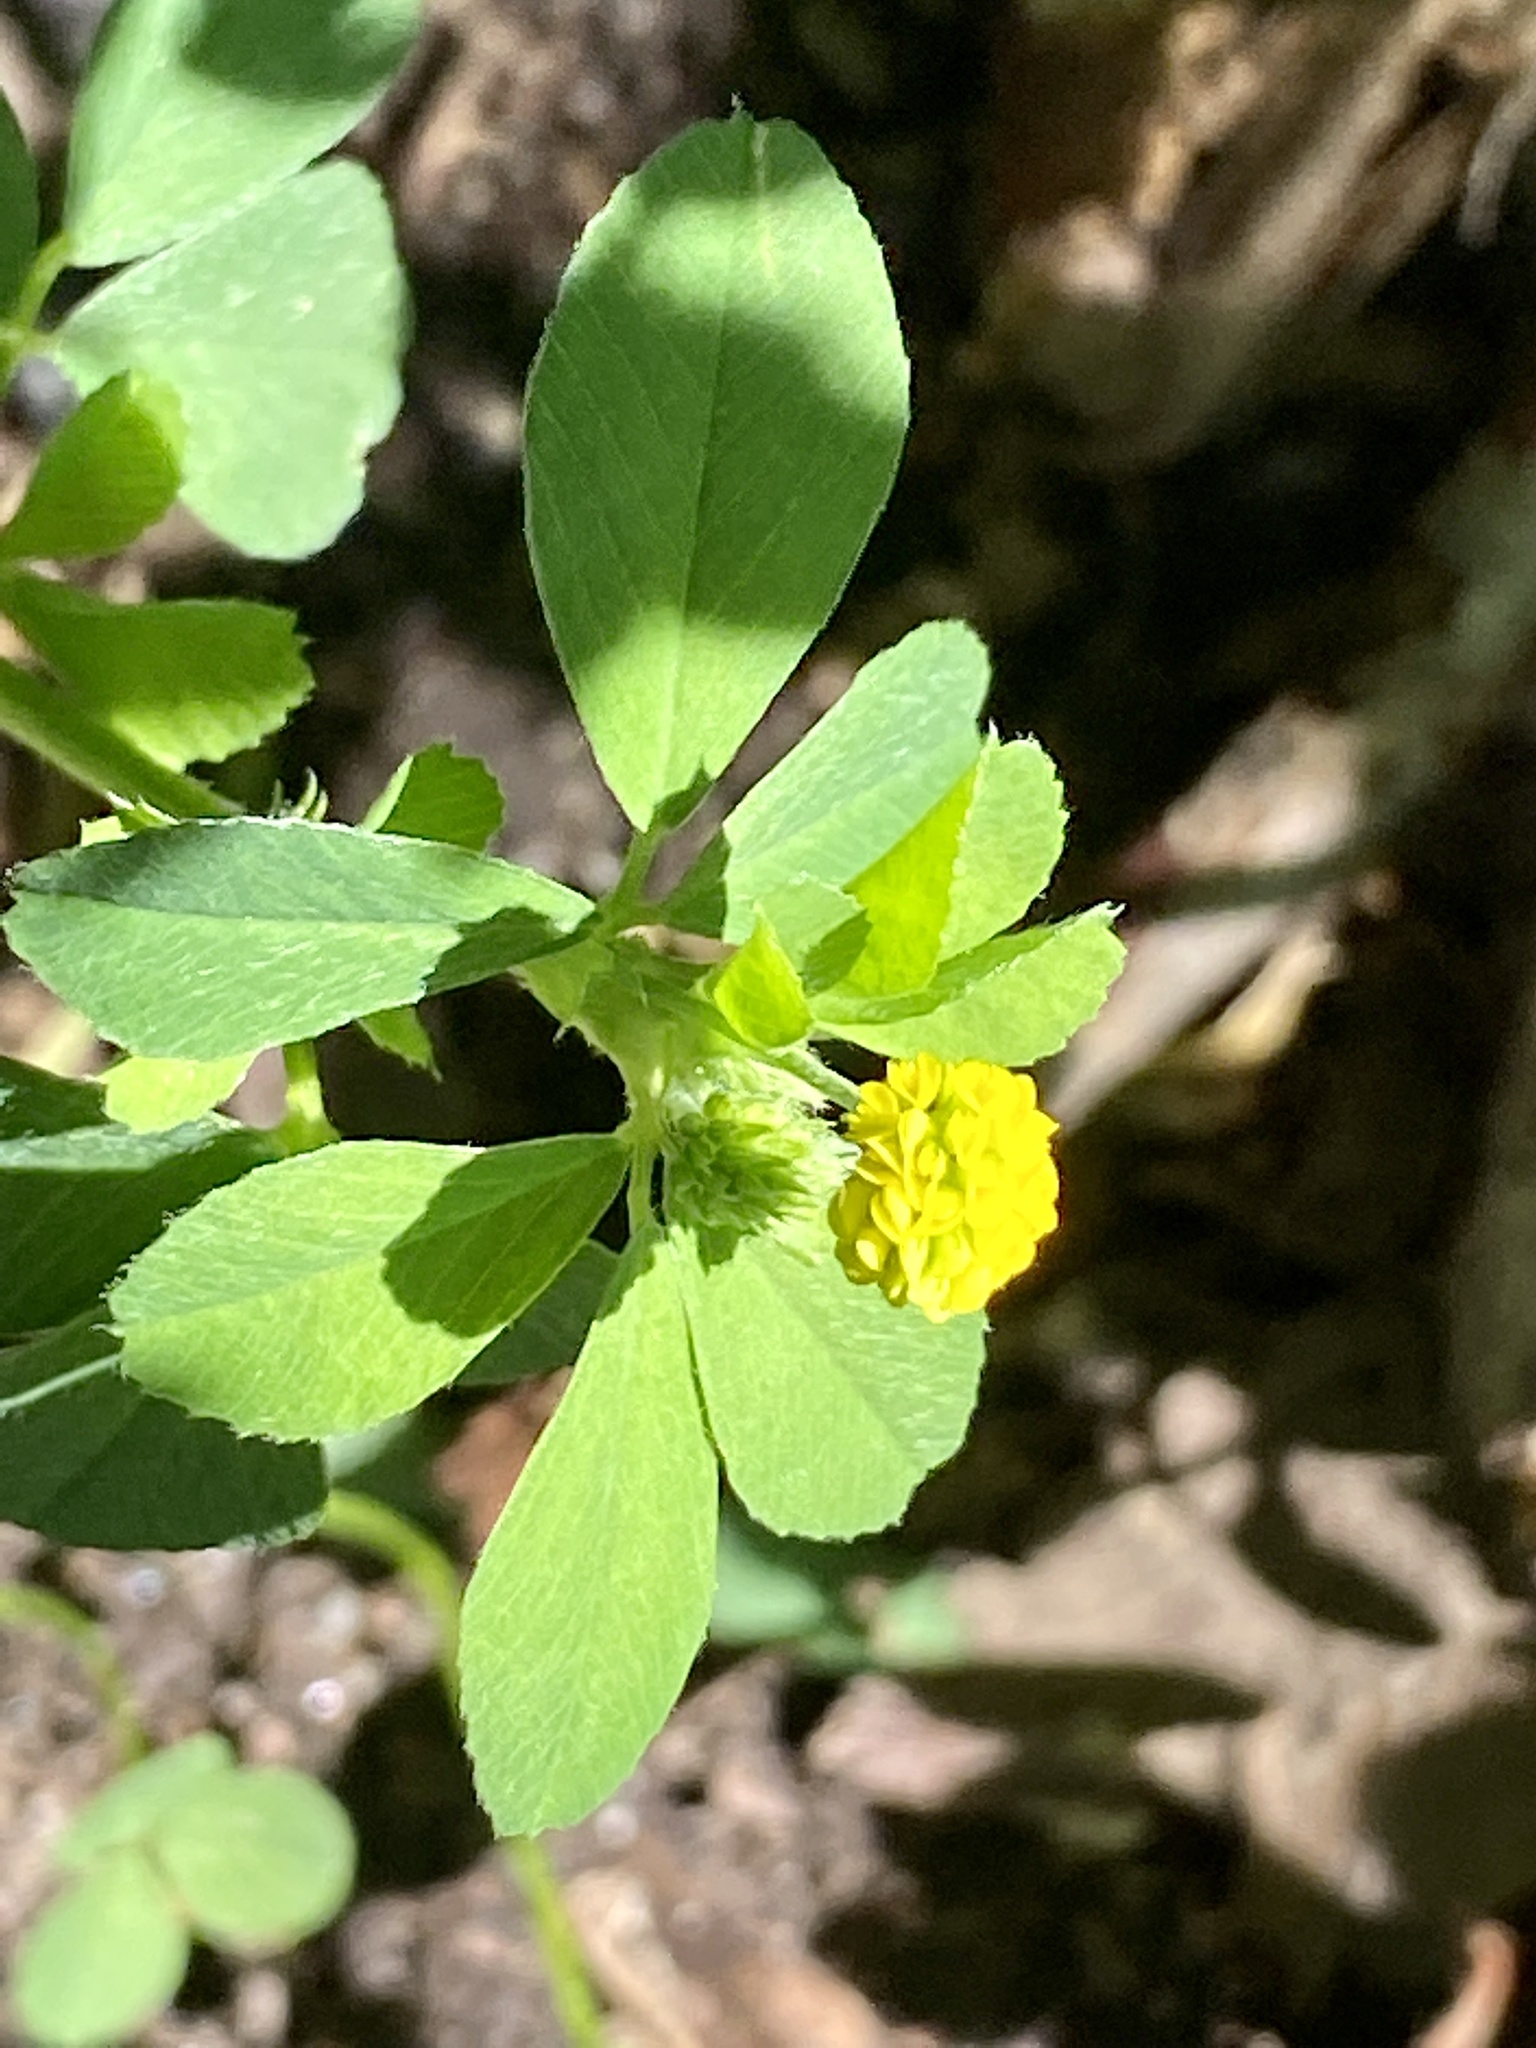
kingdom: Plantae
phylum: Tracheophyta
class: Magnoliopsida
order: Fabales
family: Fabaceae
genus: Medicago
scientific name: Medicago lupulina
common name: Black medick
